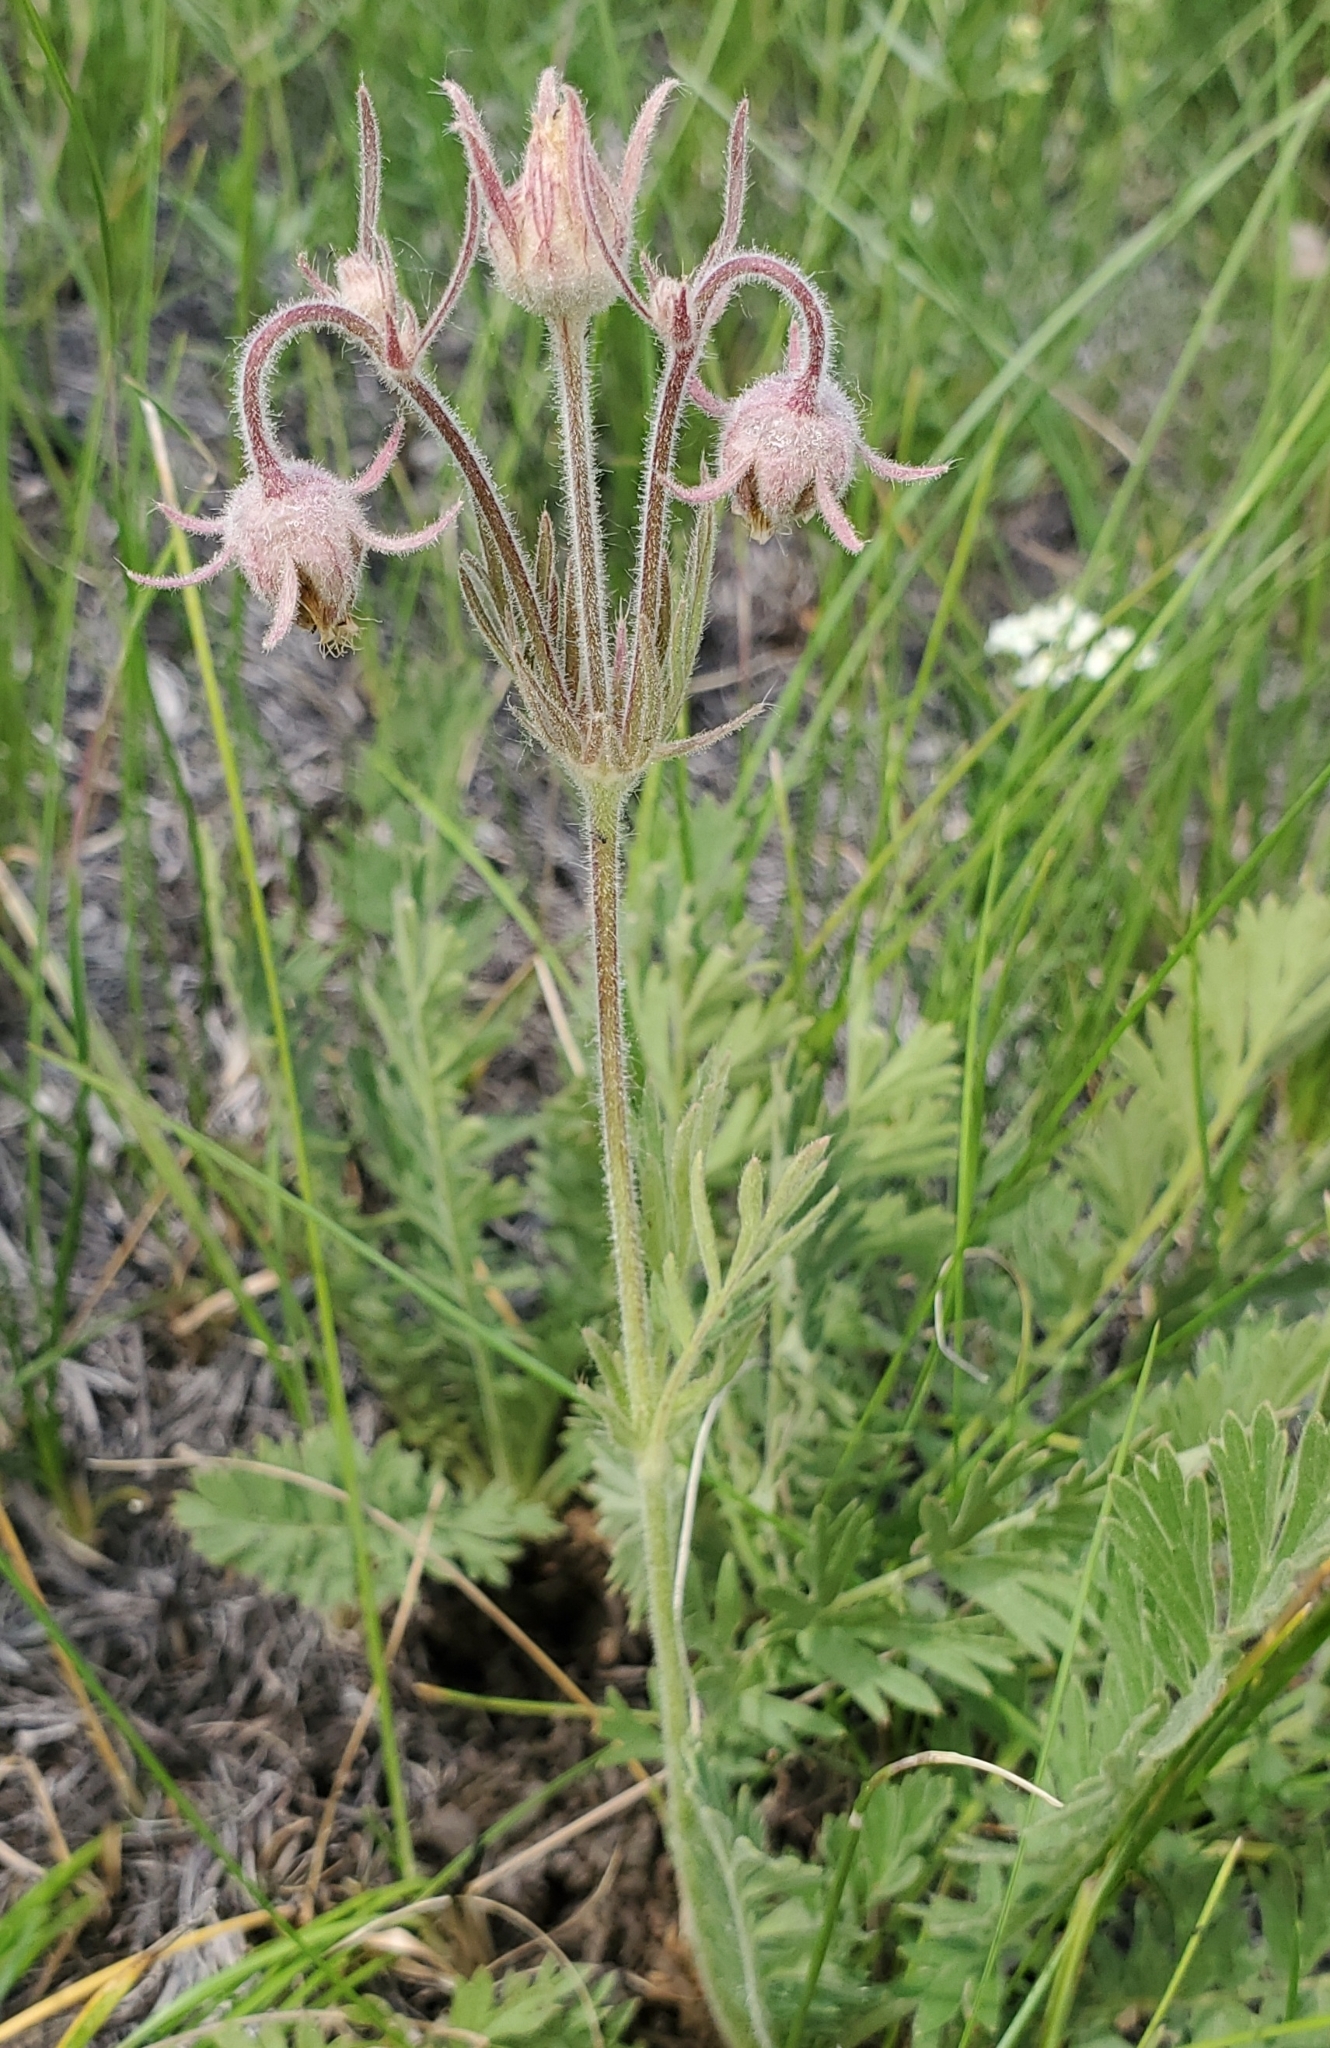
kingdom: Plantae
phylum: Tracheophyta
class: Magnoliopsida
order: Rosales
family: Rosaceae
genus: Geum
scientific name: Geum triflorum
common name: Old man's whiskers
